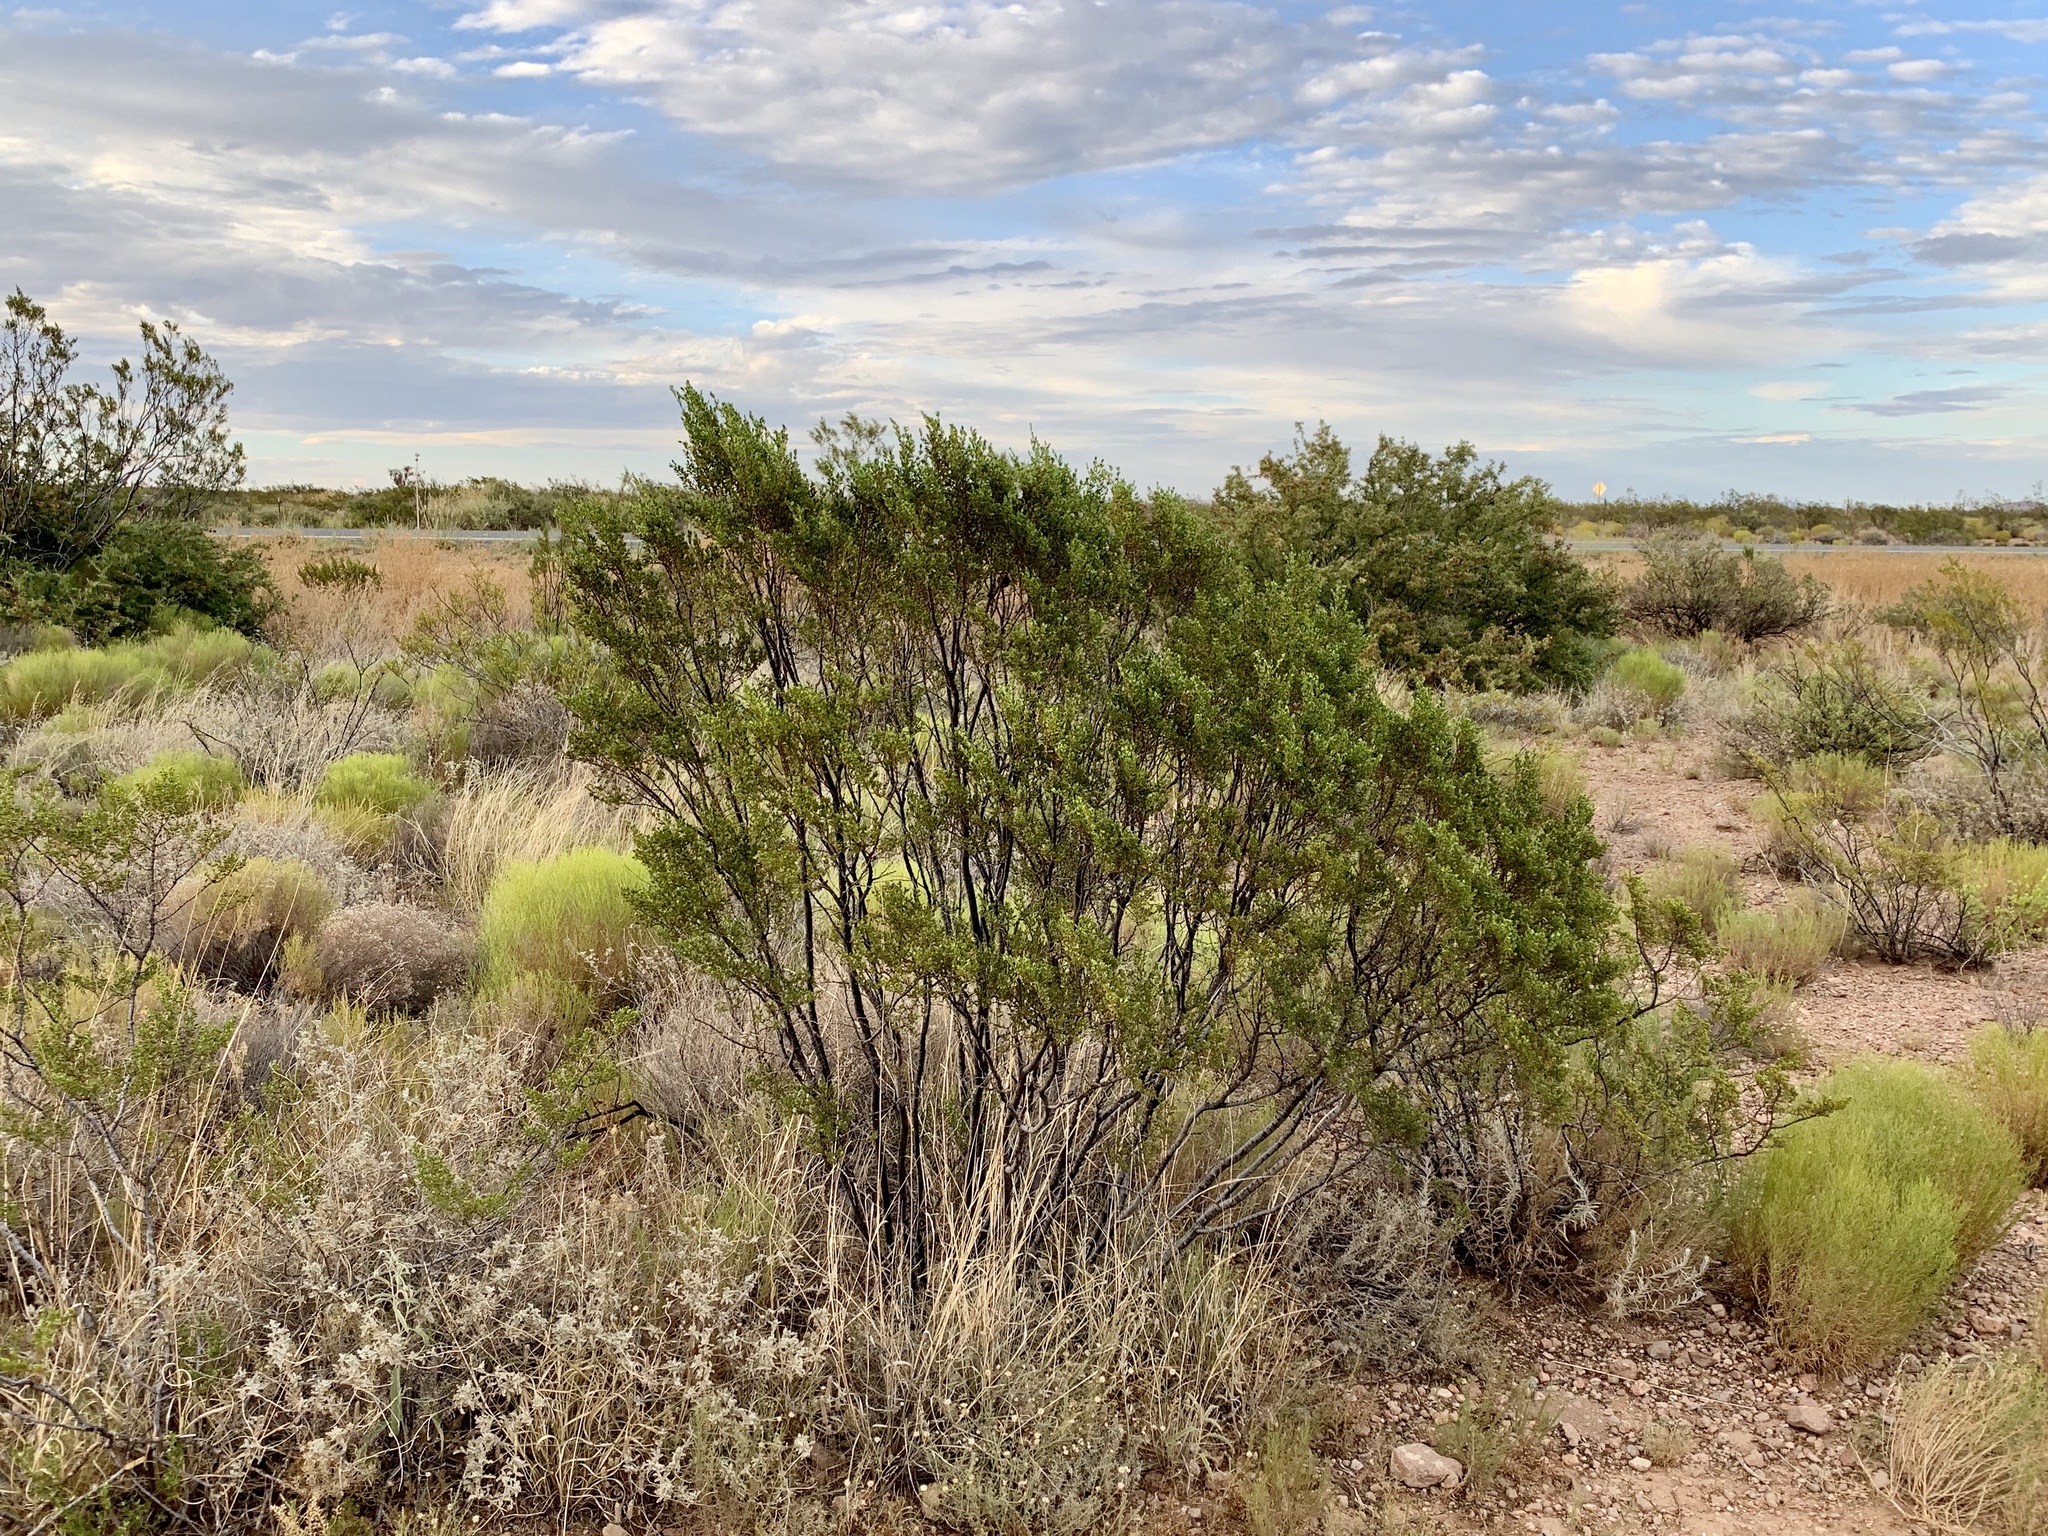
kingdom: Plantae
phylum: Tracheophyta
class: Magnoliopsida
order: Zygophyllales
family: Zygophyllaceae
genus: Larrea
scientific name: Larrea tridentata
